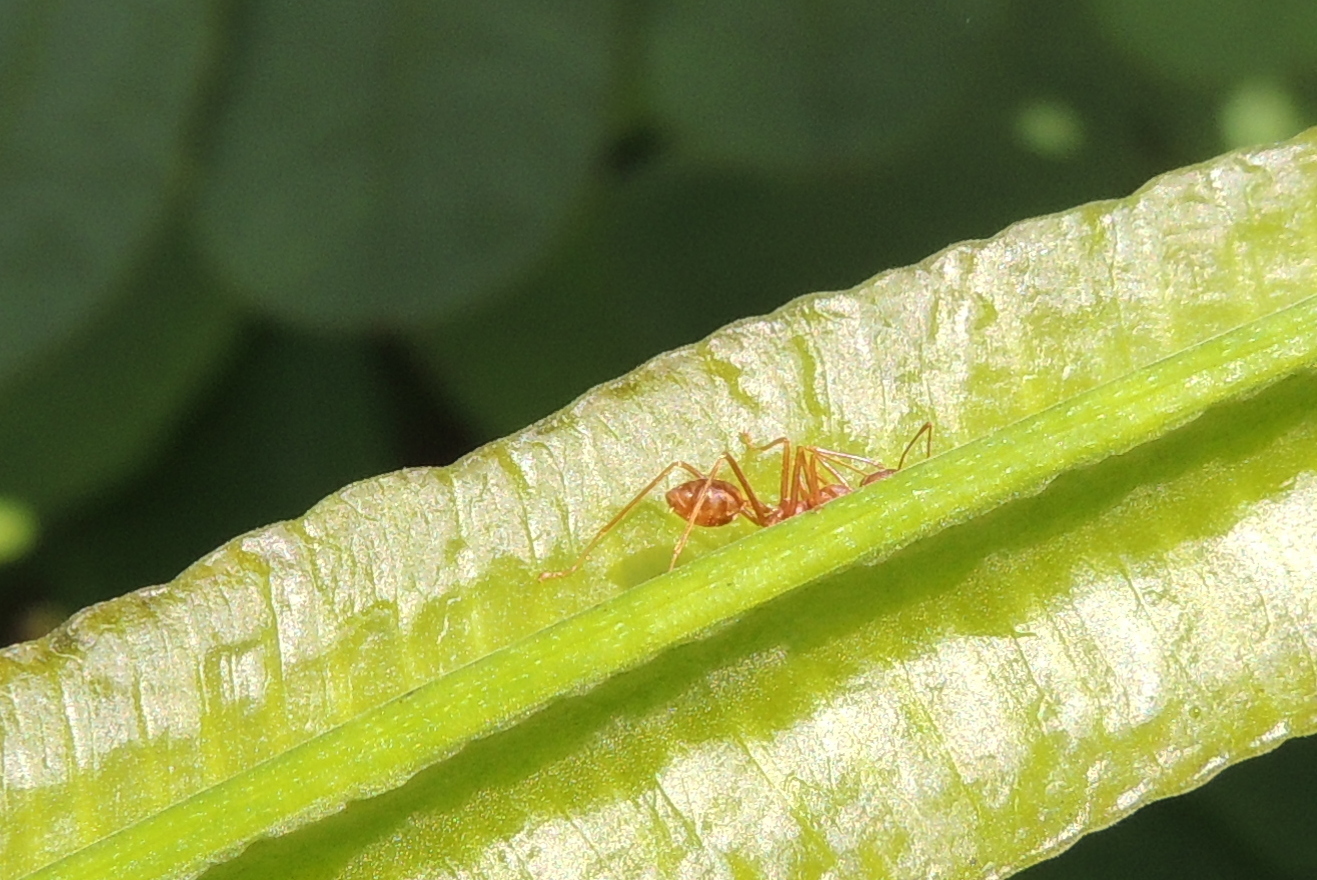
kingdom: Animalia
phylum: Arthropoda
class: Insecta
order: Hymenoptera
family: Formicidae
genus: Oecophylla
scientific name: Oecophylla smaragdina
